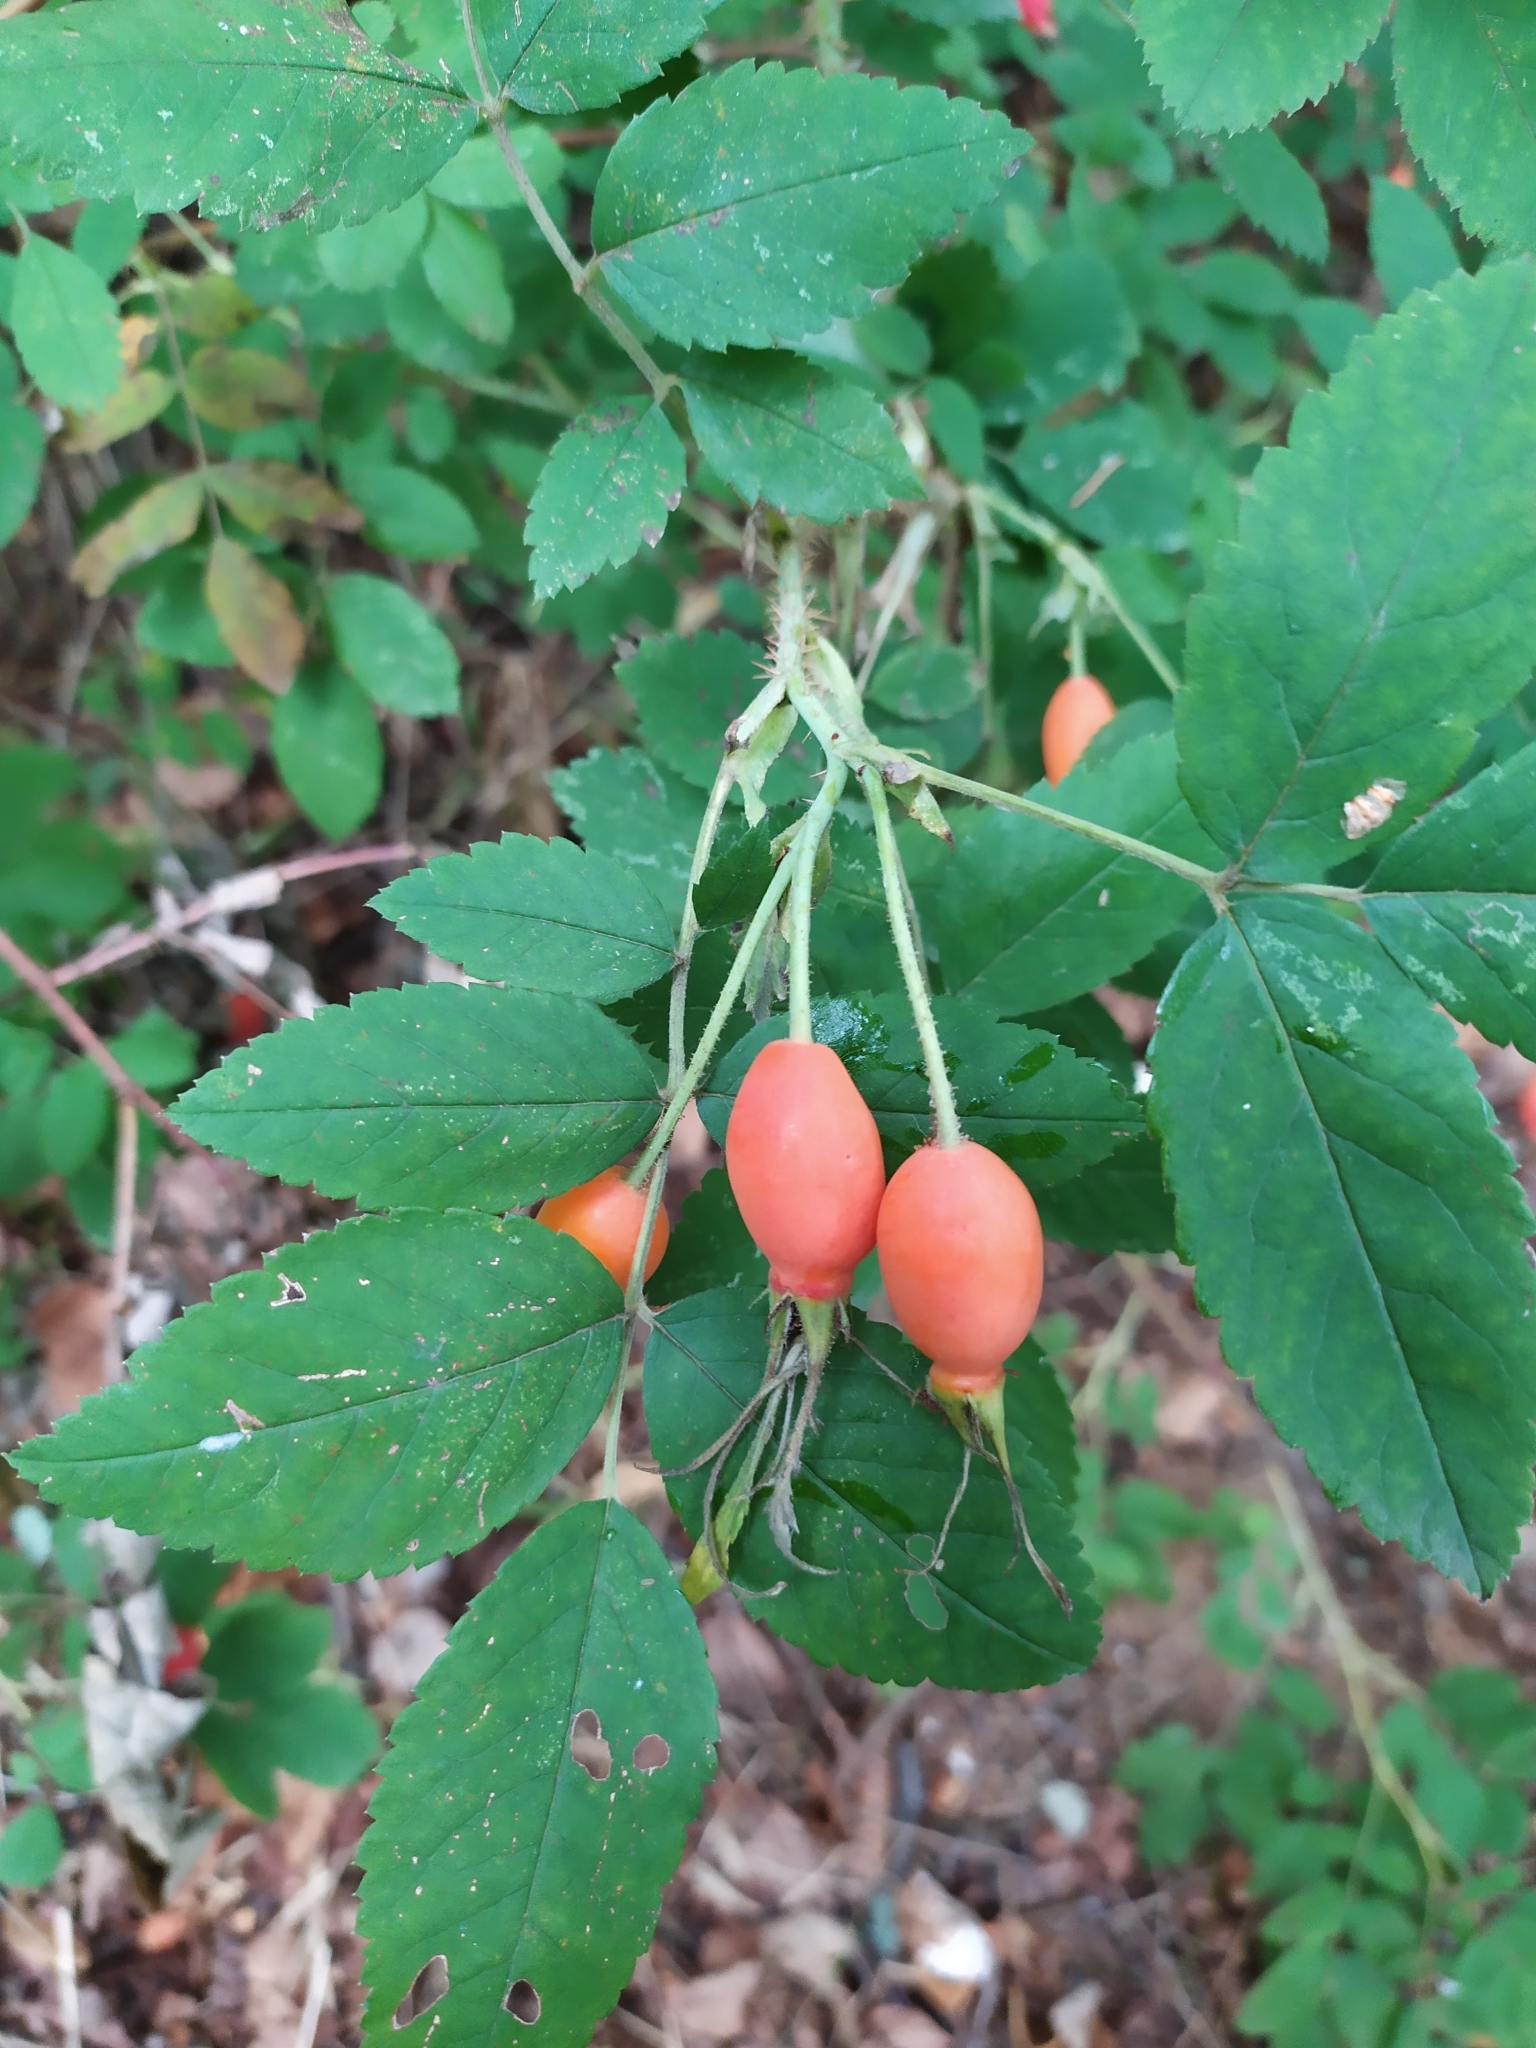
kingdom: Plantae
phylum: Tracheophyta
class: Magnoliopsida
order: Rosales
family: Rosaceae
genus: Rosa
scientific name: Rosa acicularis
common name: Prickly rose
